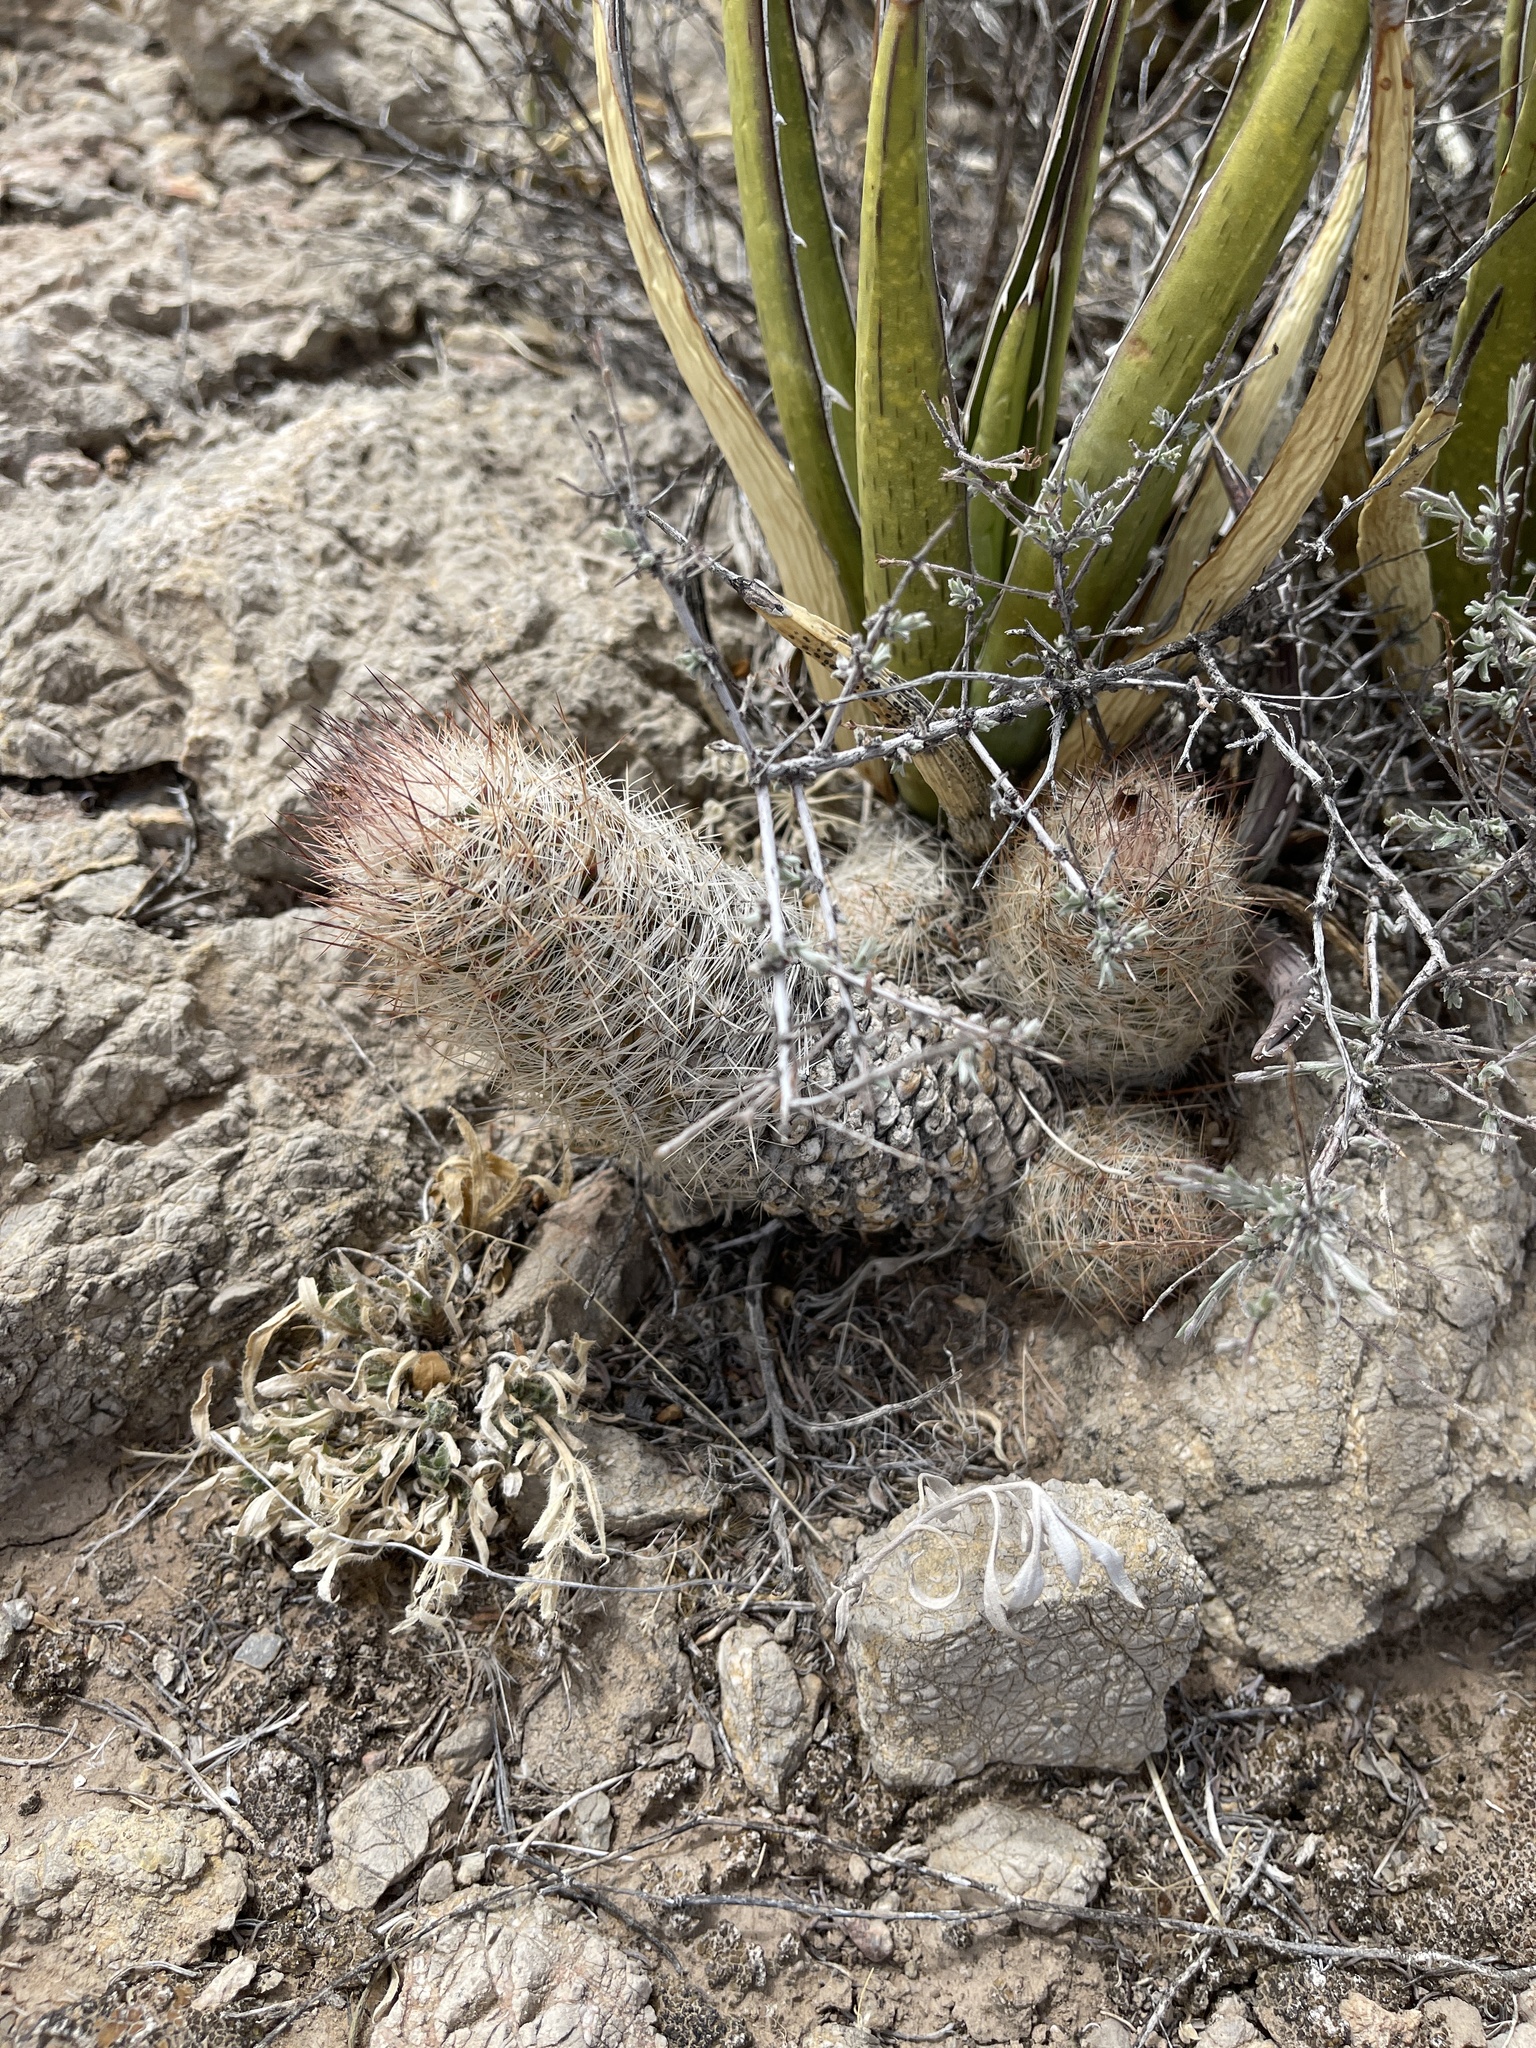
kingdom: Plantae
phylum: Tracheophyta
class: Magnoliopsida
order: Caryophyllales
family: Cactaceae
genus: Pelecyphora
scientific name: Pelecyphora tuberculosa
